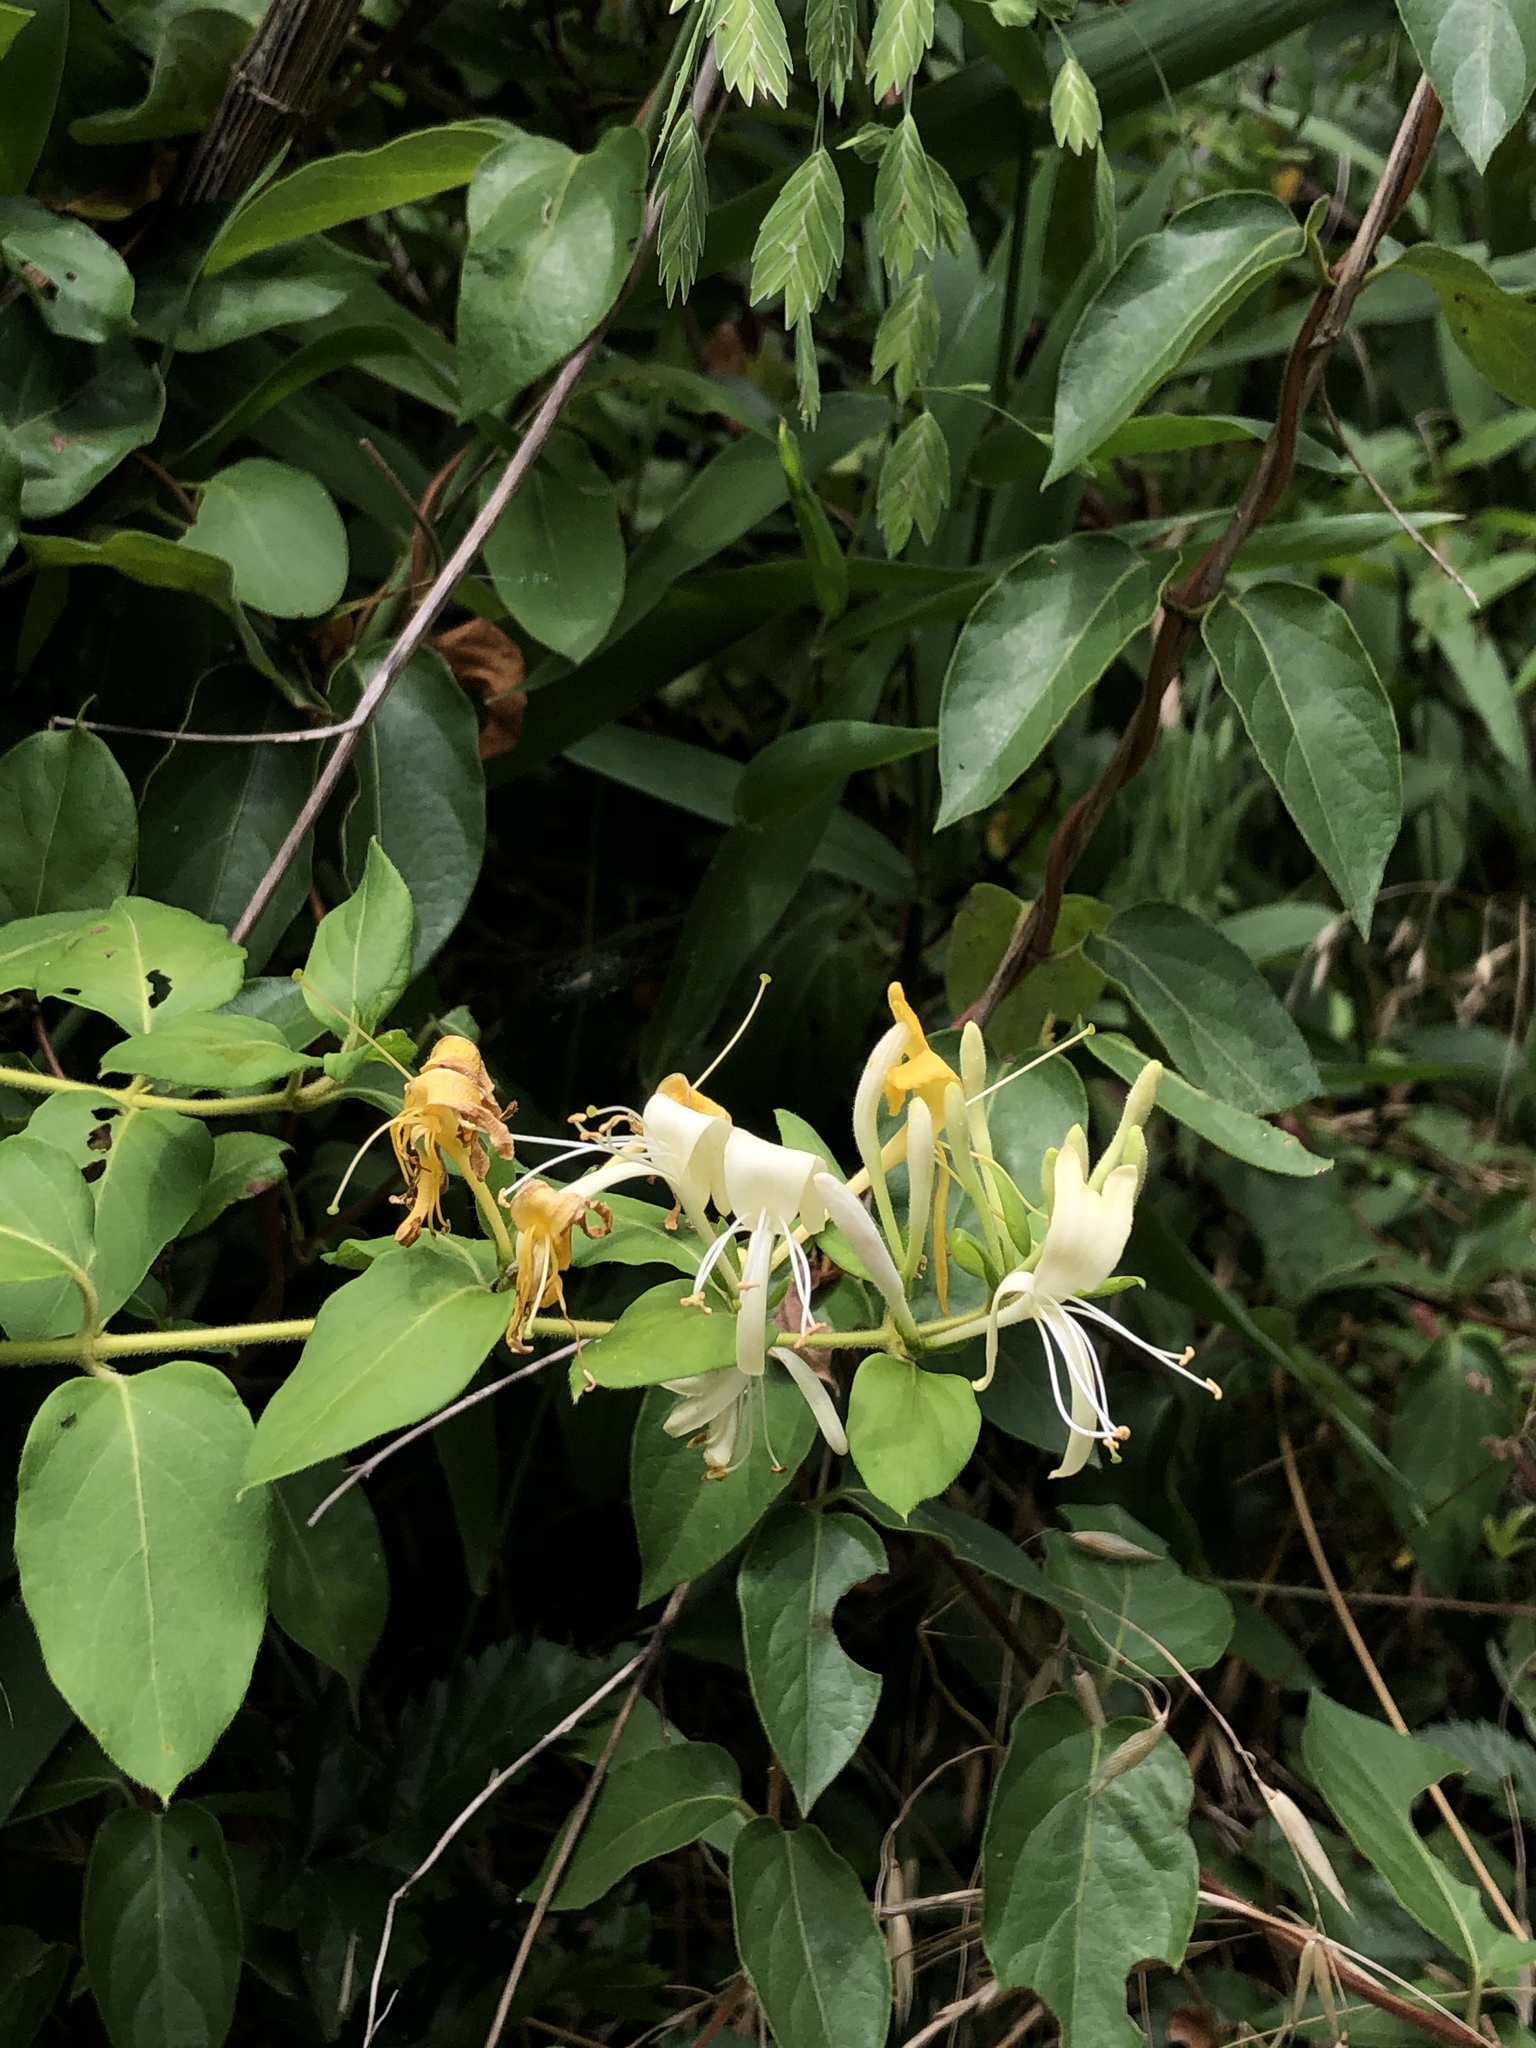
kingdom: Plantae
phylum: Tracheophyta
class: Magnoliopsida
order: Dipsacales
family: Caprifoliaceae
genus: Lonicera
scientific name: Lonicera japonica
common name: Japanese honeysuckle
